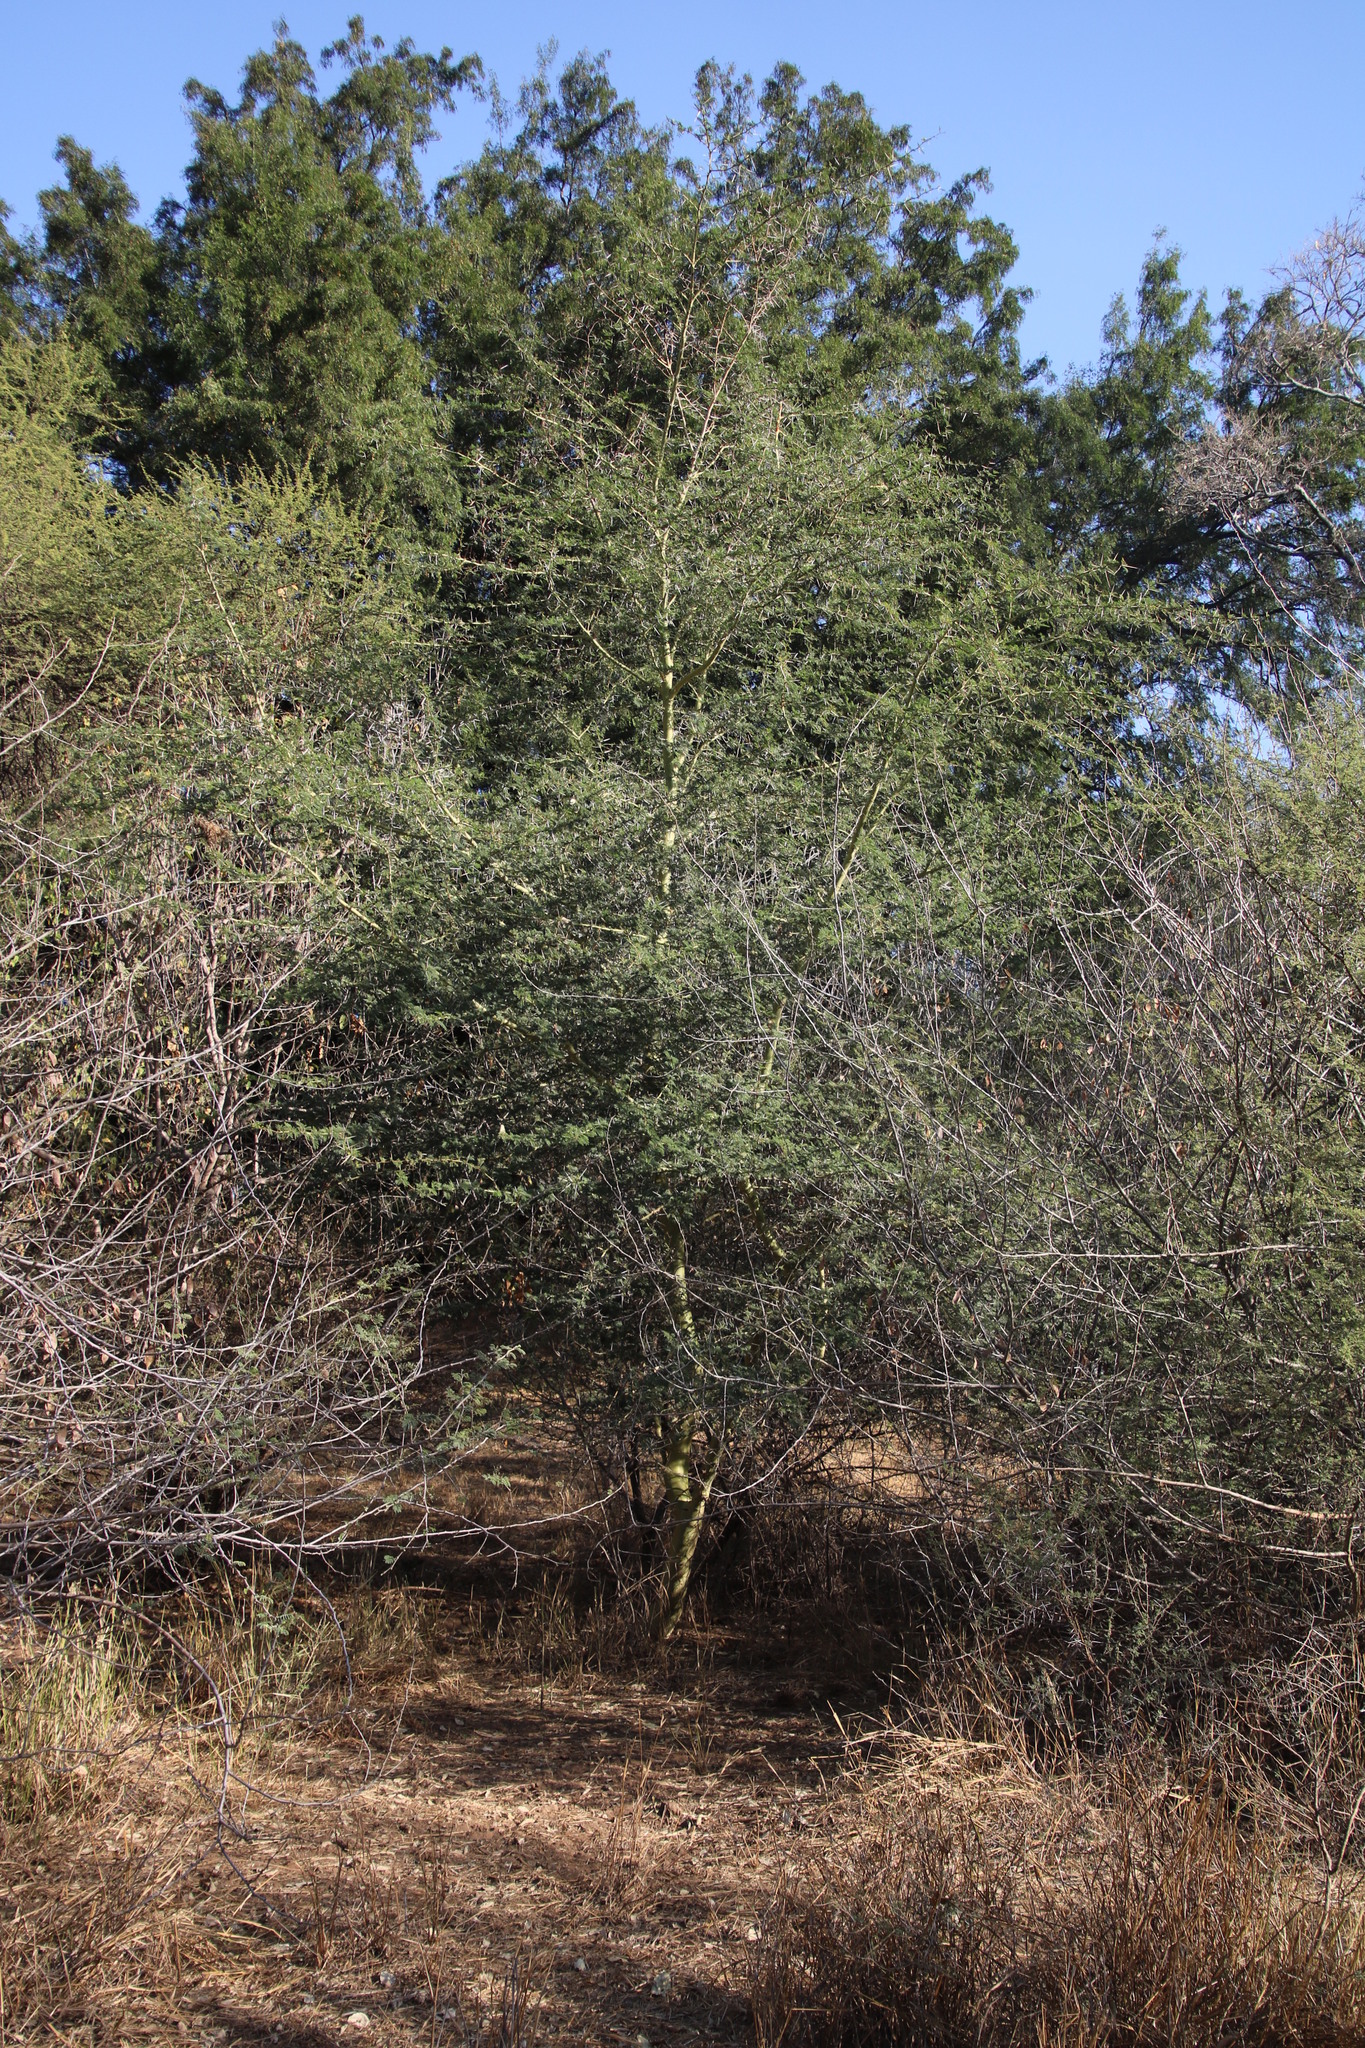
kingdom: Plantae
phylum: Tracheophyta
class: Magnoliopsida
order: Fabales
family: Fabaceae
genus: Vachellia
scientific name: Vachellia xanthophloea
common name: Fever tree
